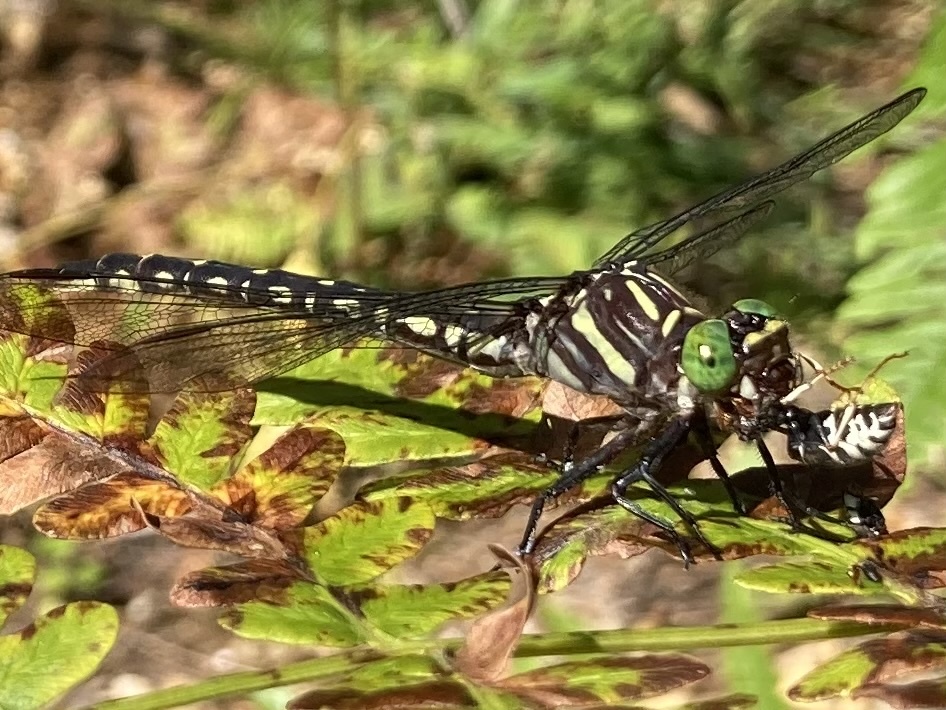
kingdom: Animalia
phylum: Arthropoda
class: Insecta
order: Odonata
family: Gomphidae
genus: Stylurus
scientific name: Stylurus spiniceps
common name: Arrow clubtail
